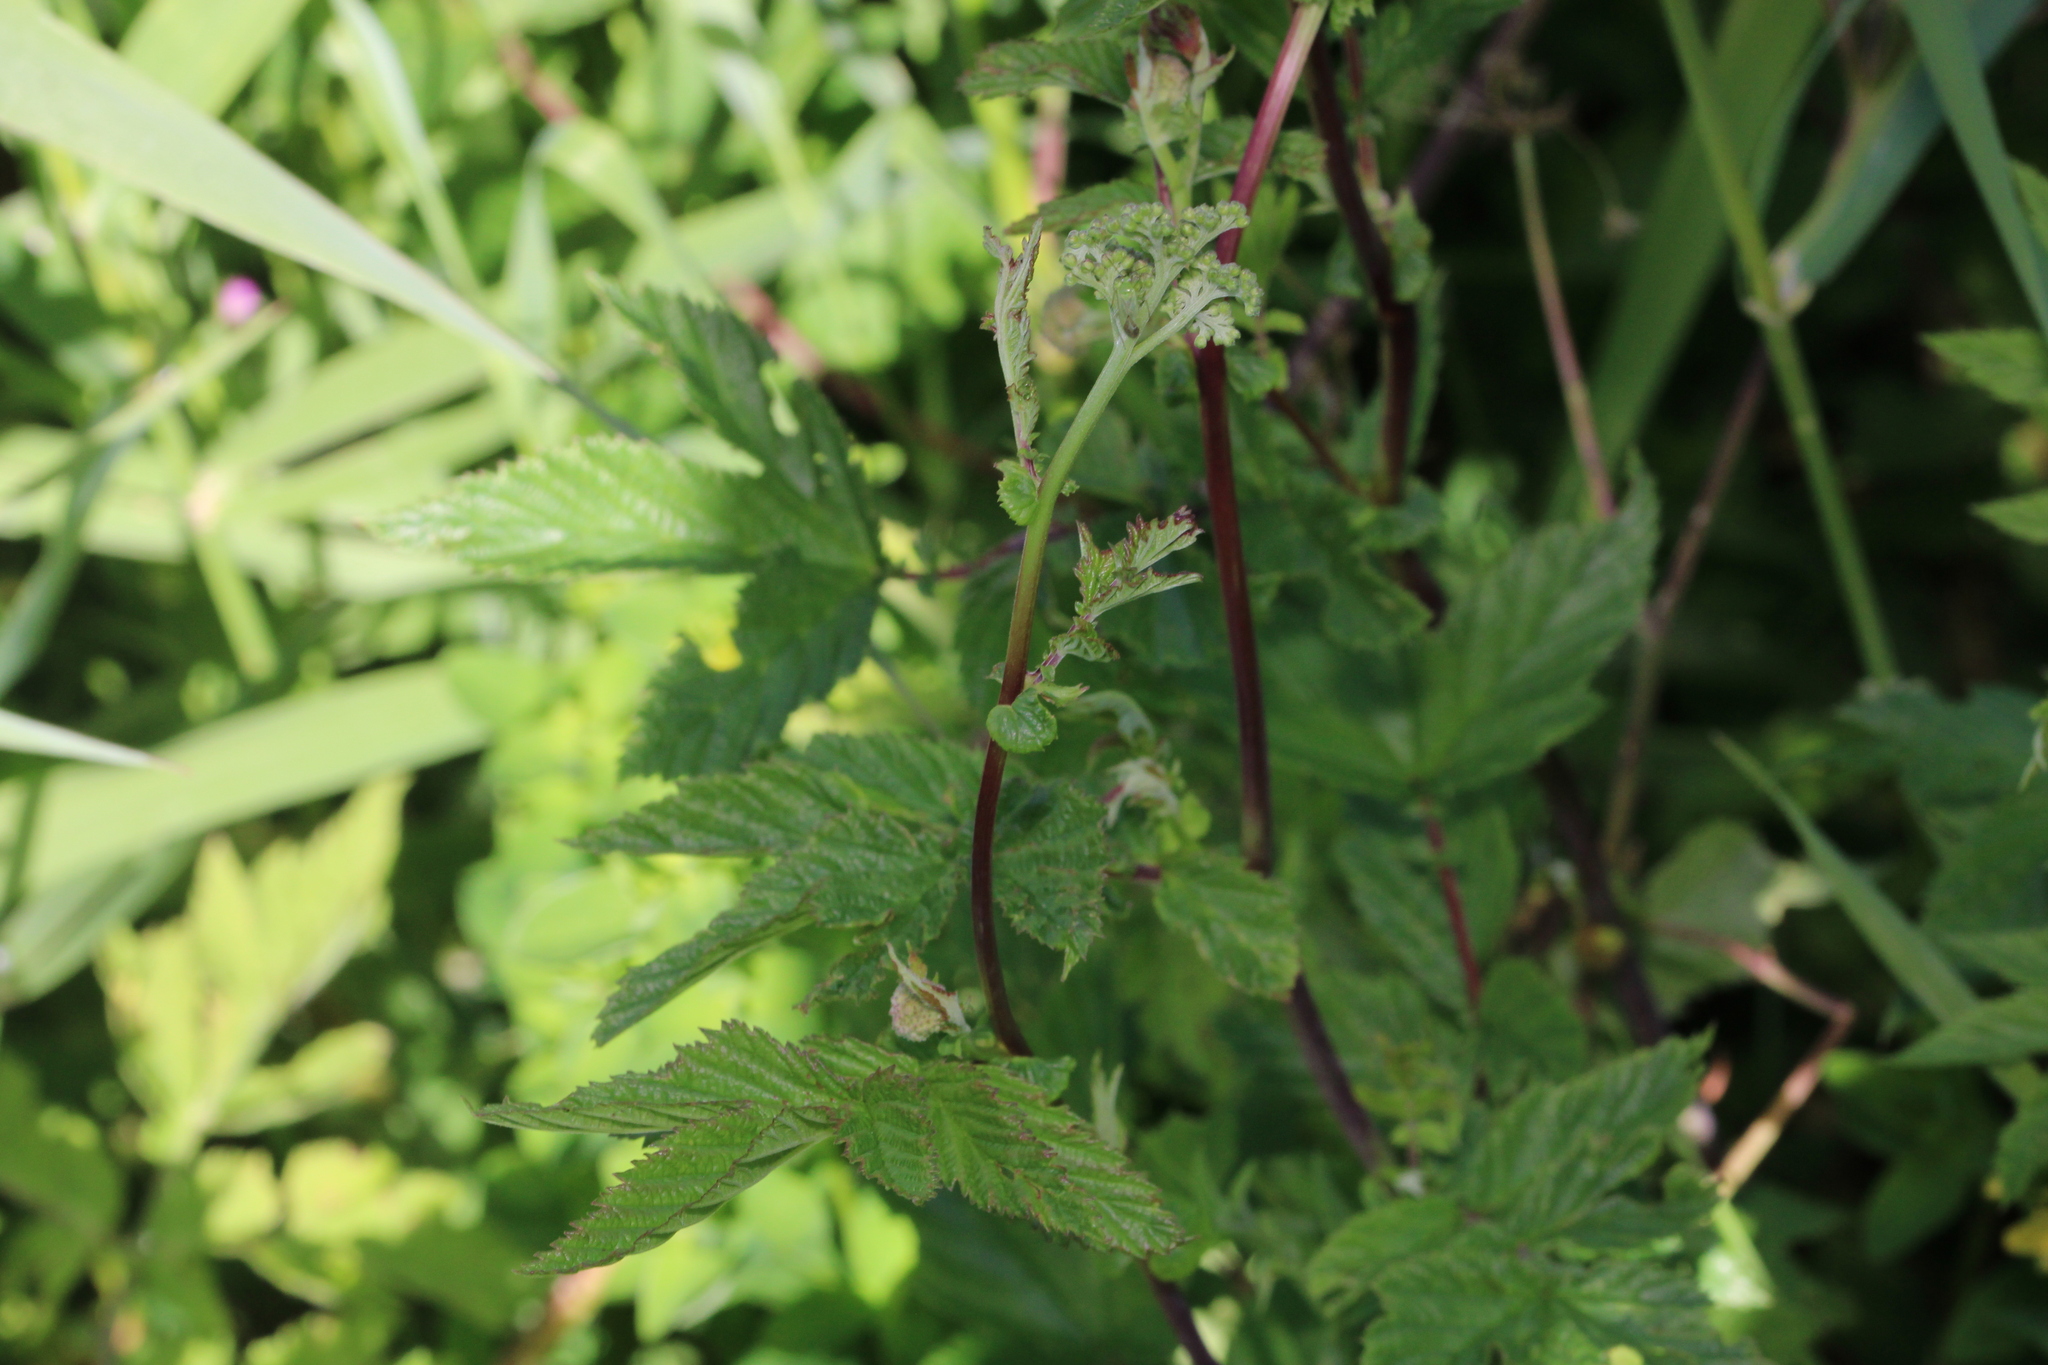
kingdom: Plantae
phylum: Tracheophyta
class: Magnoliopsida
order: Rosales
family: Rosaceae
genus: Filipendula
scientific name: Filipendula ulmaria
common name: Meadowsweet
